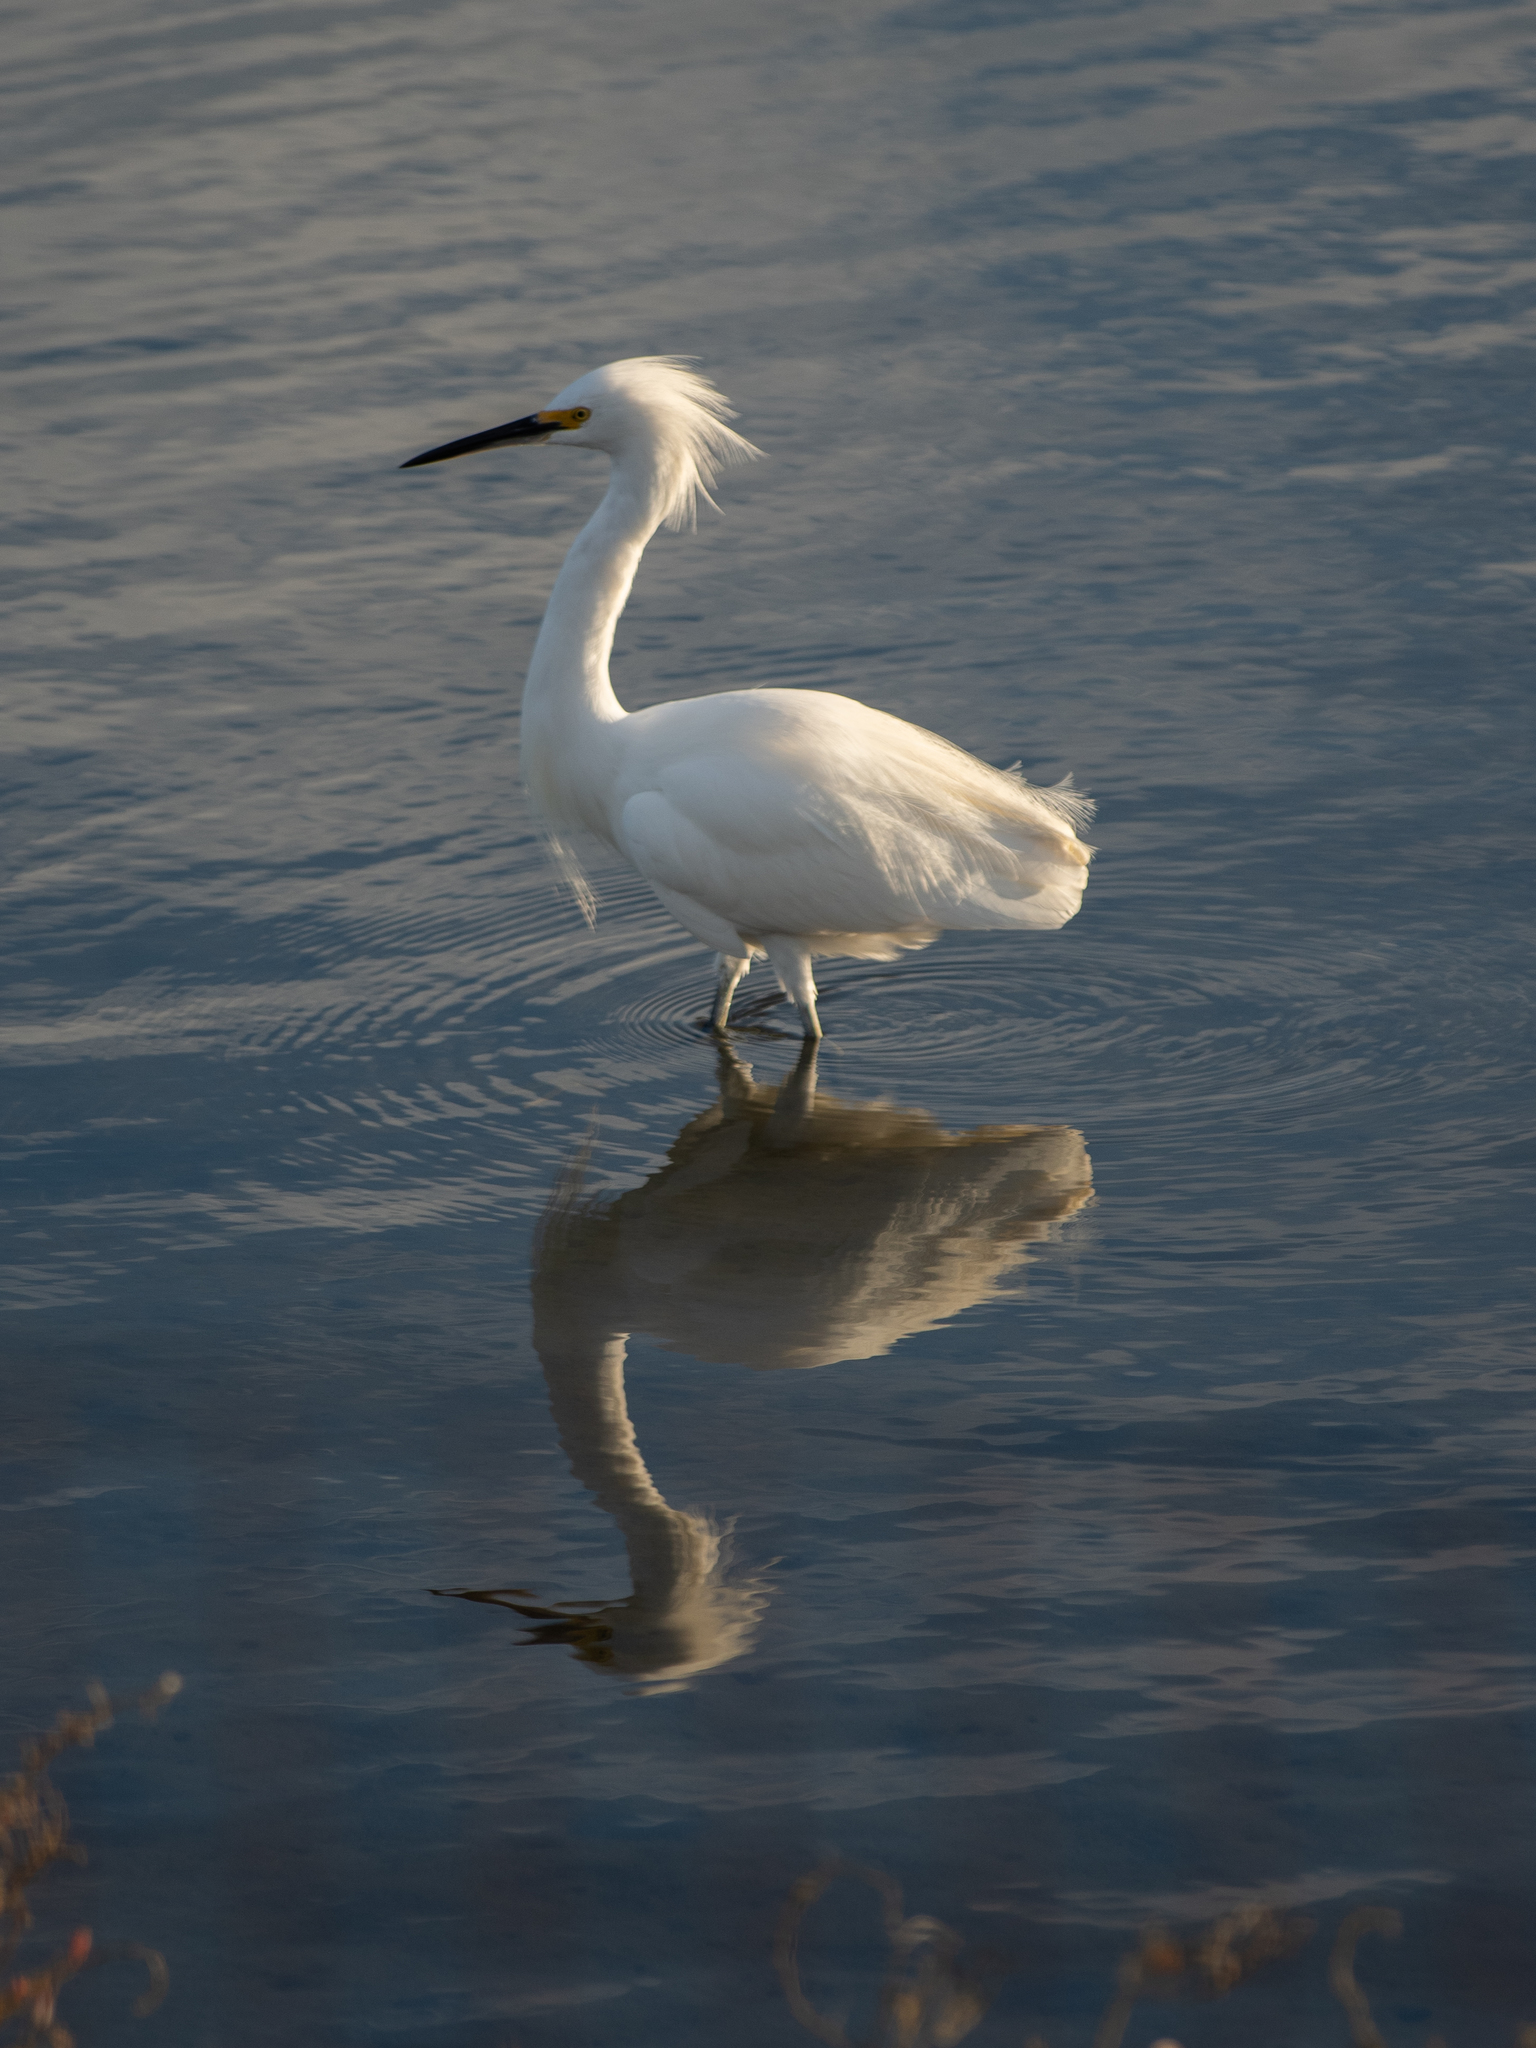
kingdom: Animalia
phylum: Chordata
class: Aves
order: Pelecaniformes
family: Ardeidae
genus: Egretta
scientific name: Egretta thula
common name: Snowy egret
